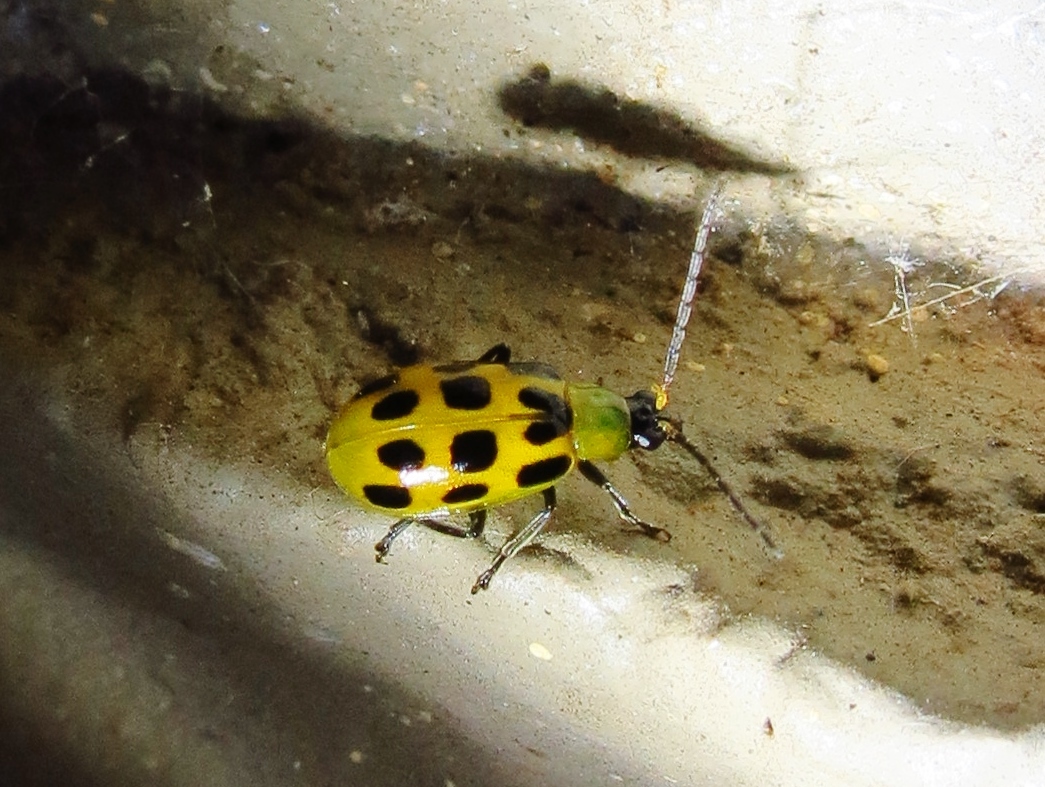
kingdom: Animalia
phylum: Arthropoda
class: Insecta
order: Coleoptera
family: Chrysomelidae
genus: Diabrotica
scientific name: Diabrotica undecimpunctata
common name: Spotted cucumber beetle
